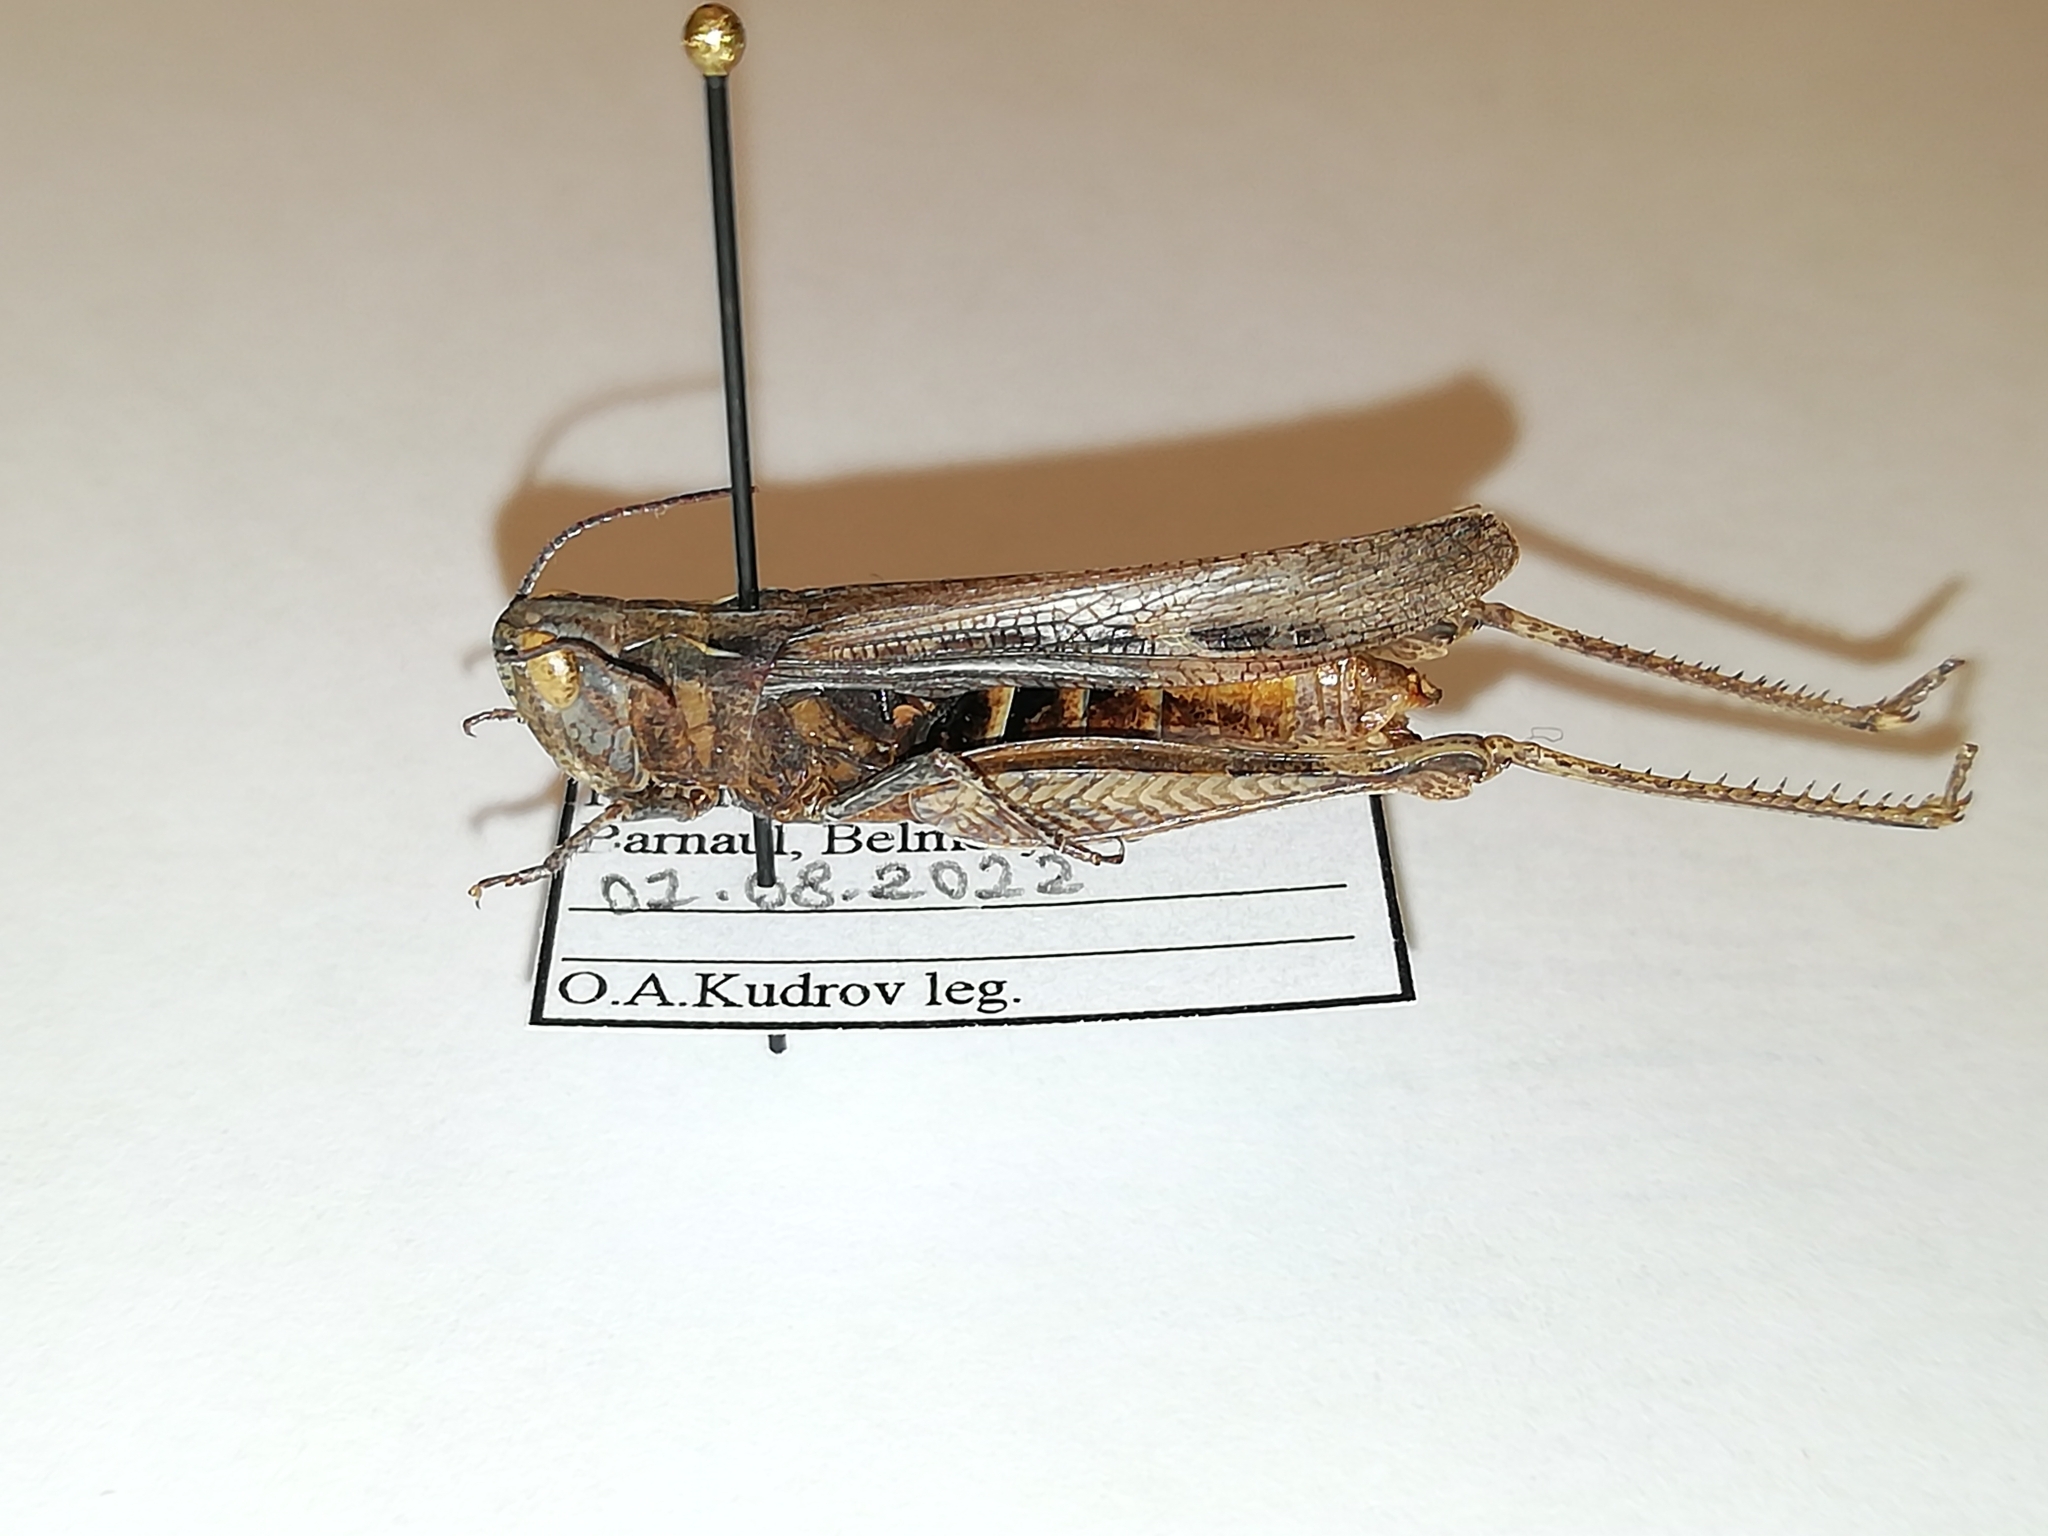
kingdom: Animalia
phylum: Arthropoda
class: Insecta
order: Orthoptera
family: Acrididae
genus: Chorthippus
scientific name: Chorthippus miramae
